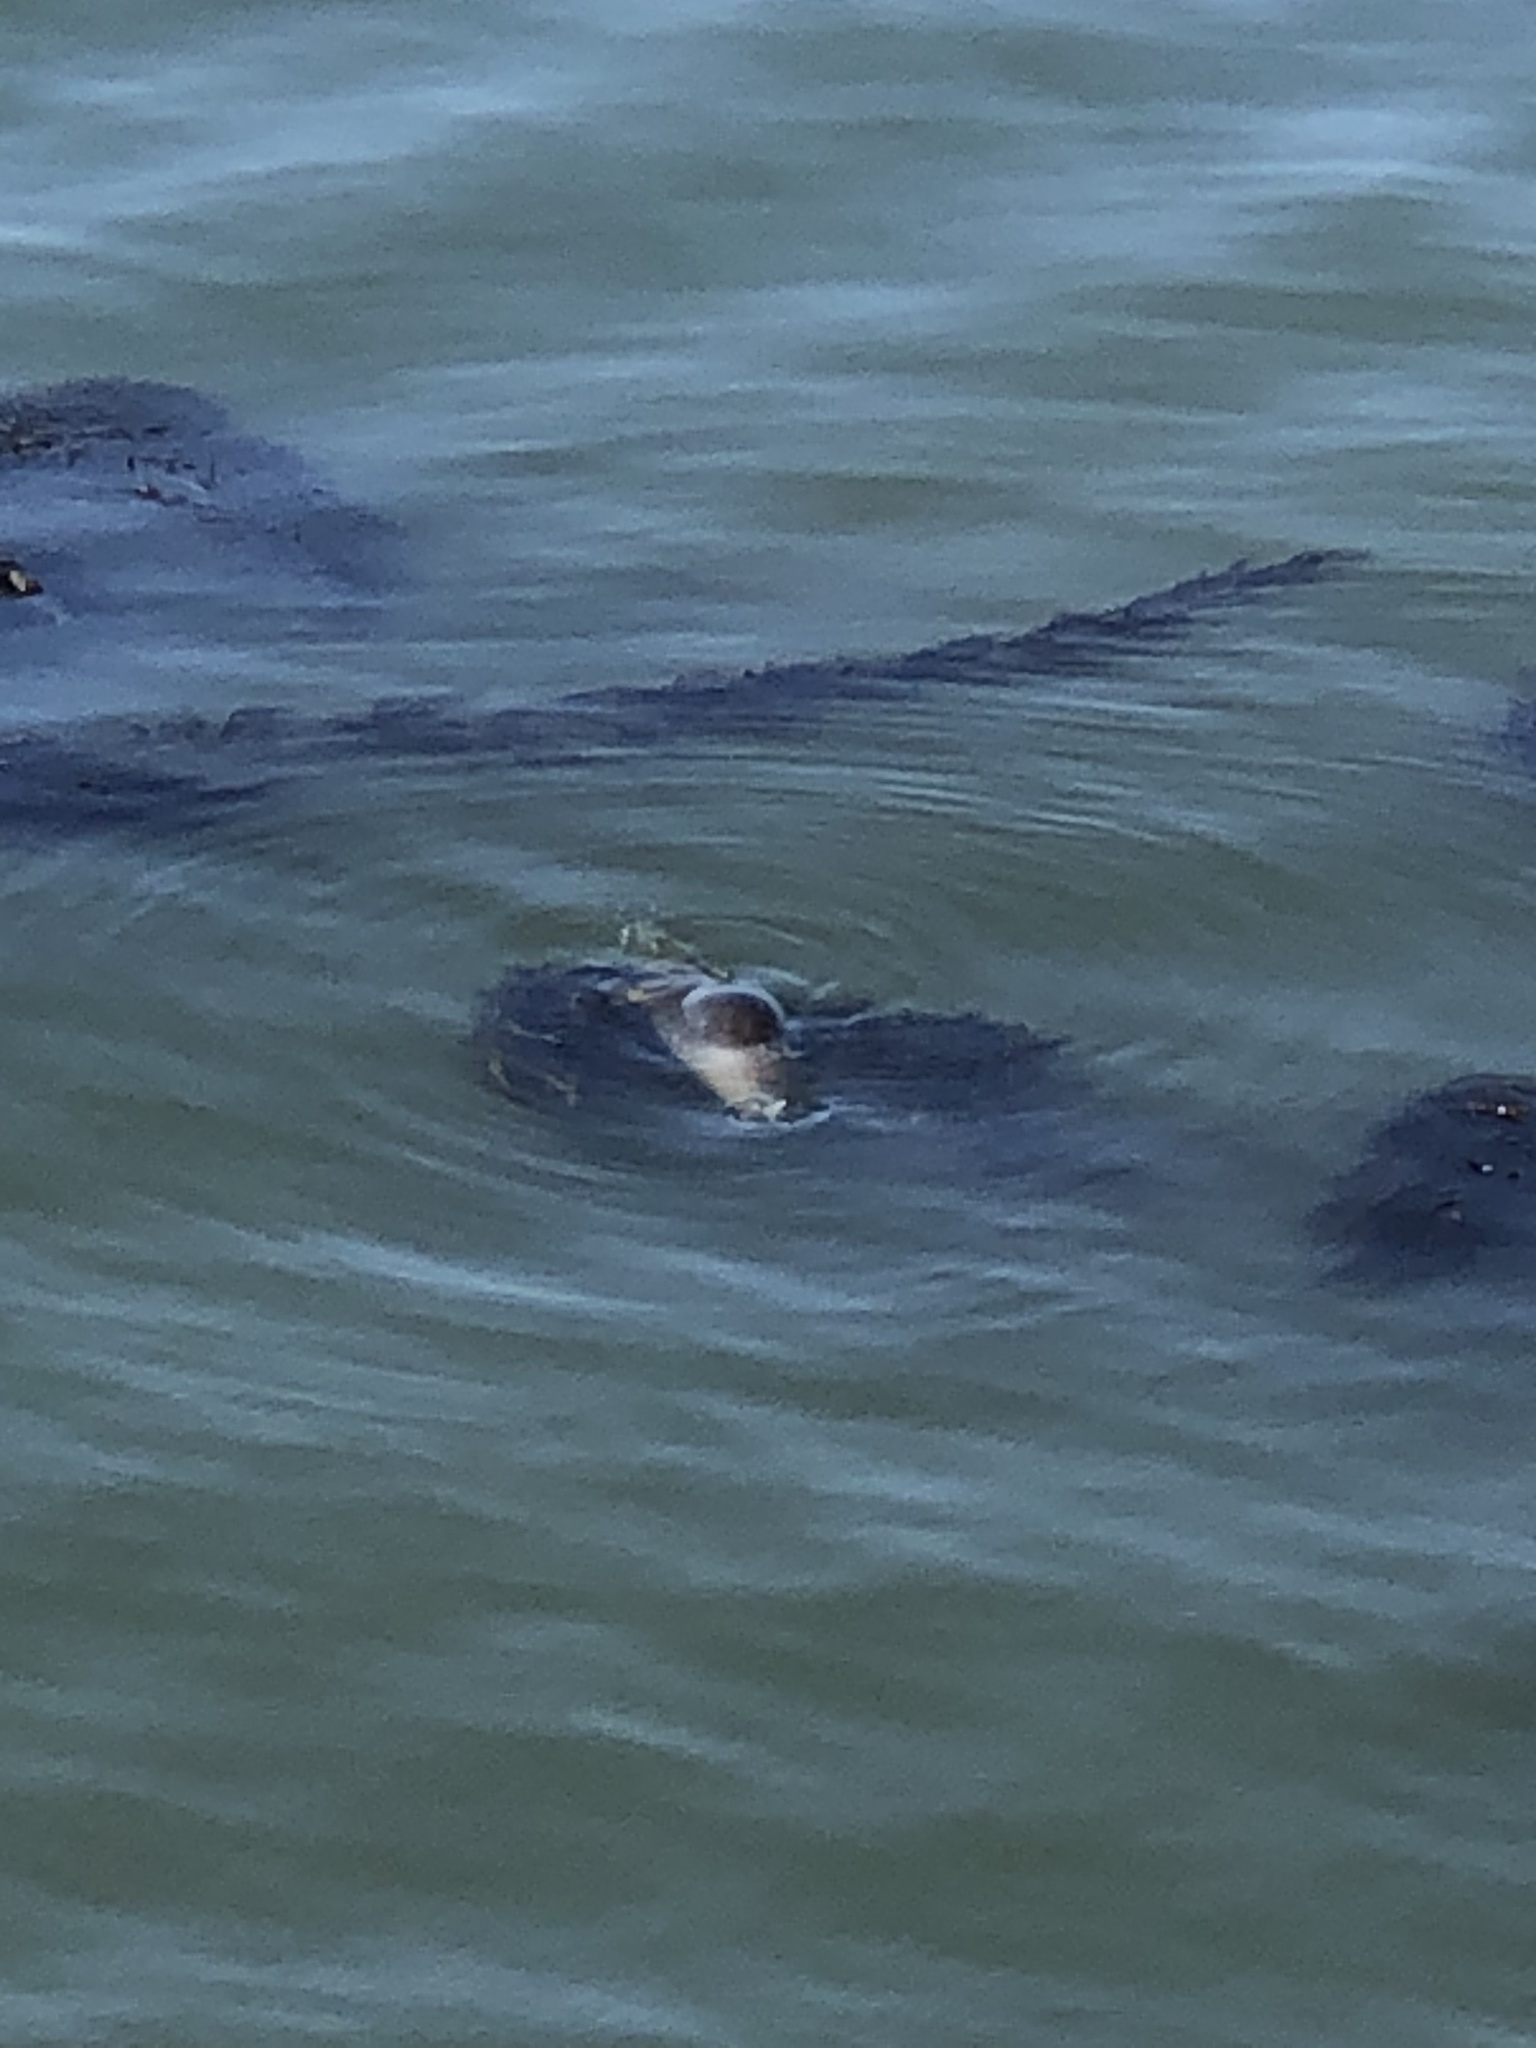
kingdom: Animalia
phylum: Chordata
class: Mammalia
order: Carnivora
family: Phocidae
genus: Phoca
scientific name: Phoca vitulina
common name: Harbor seal
